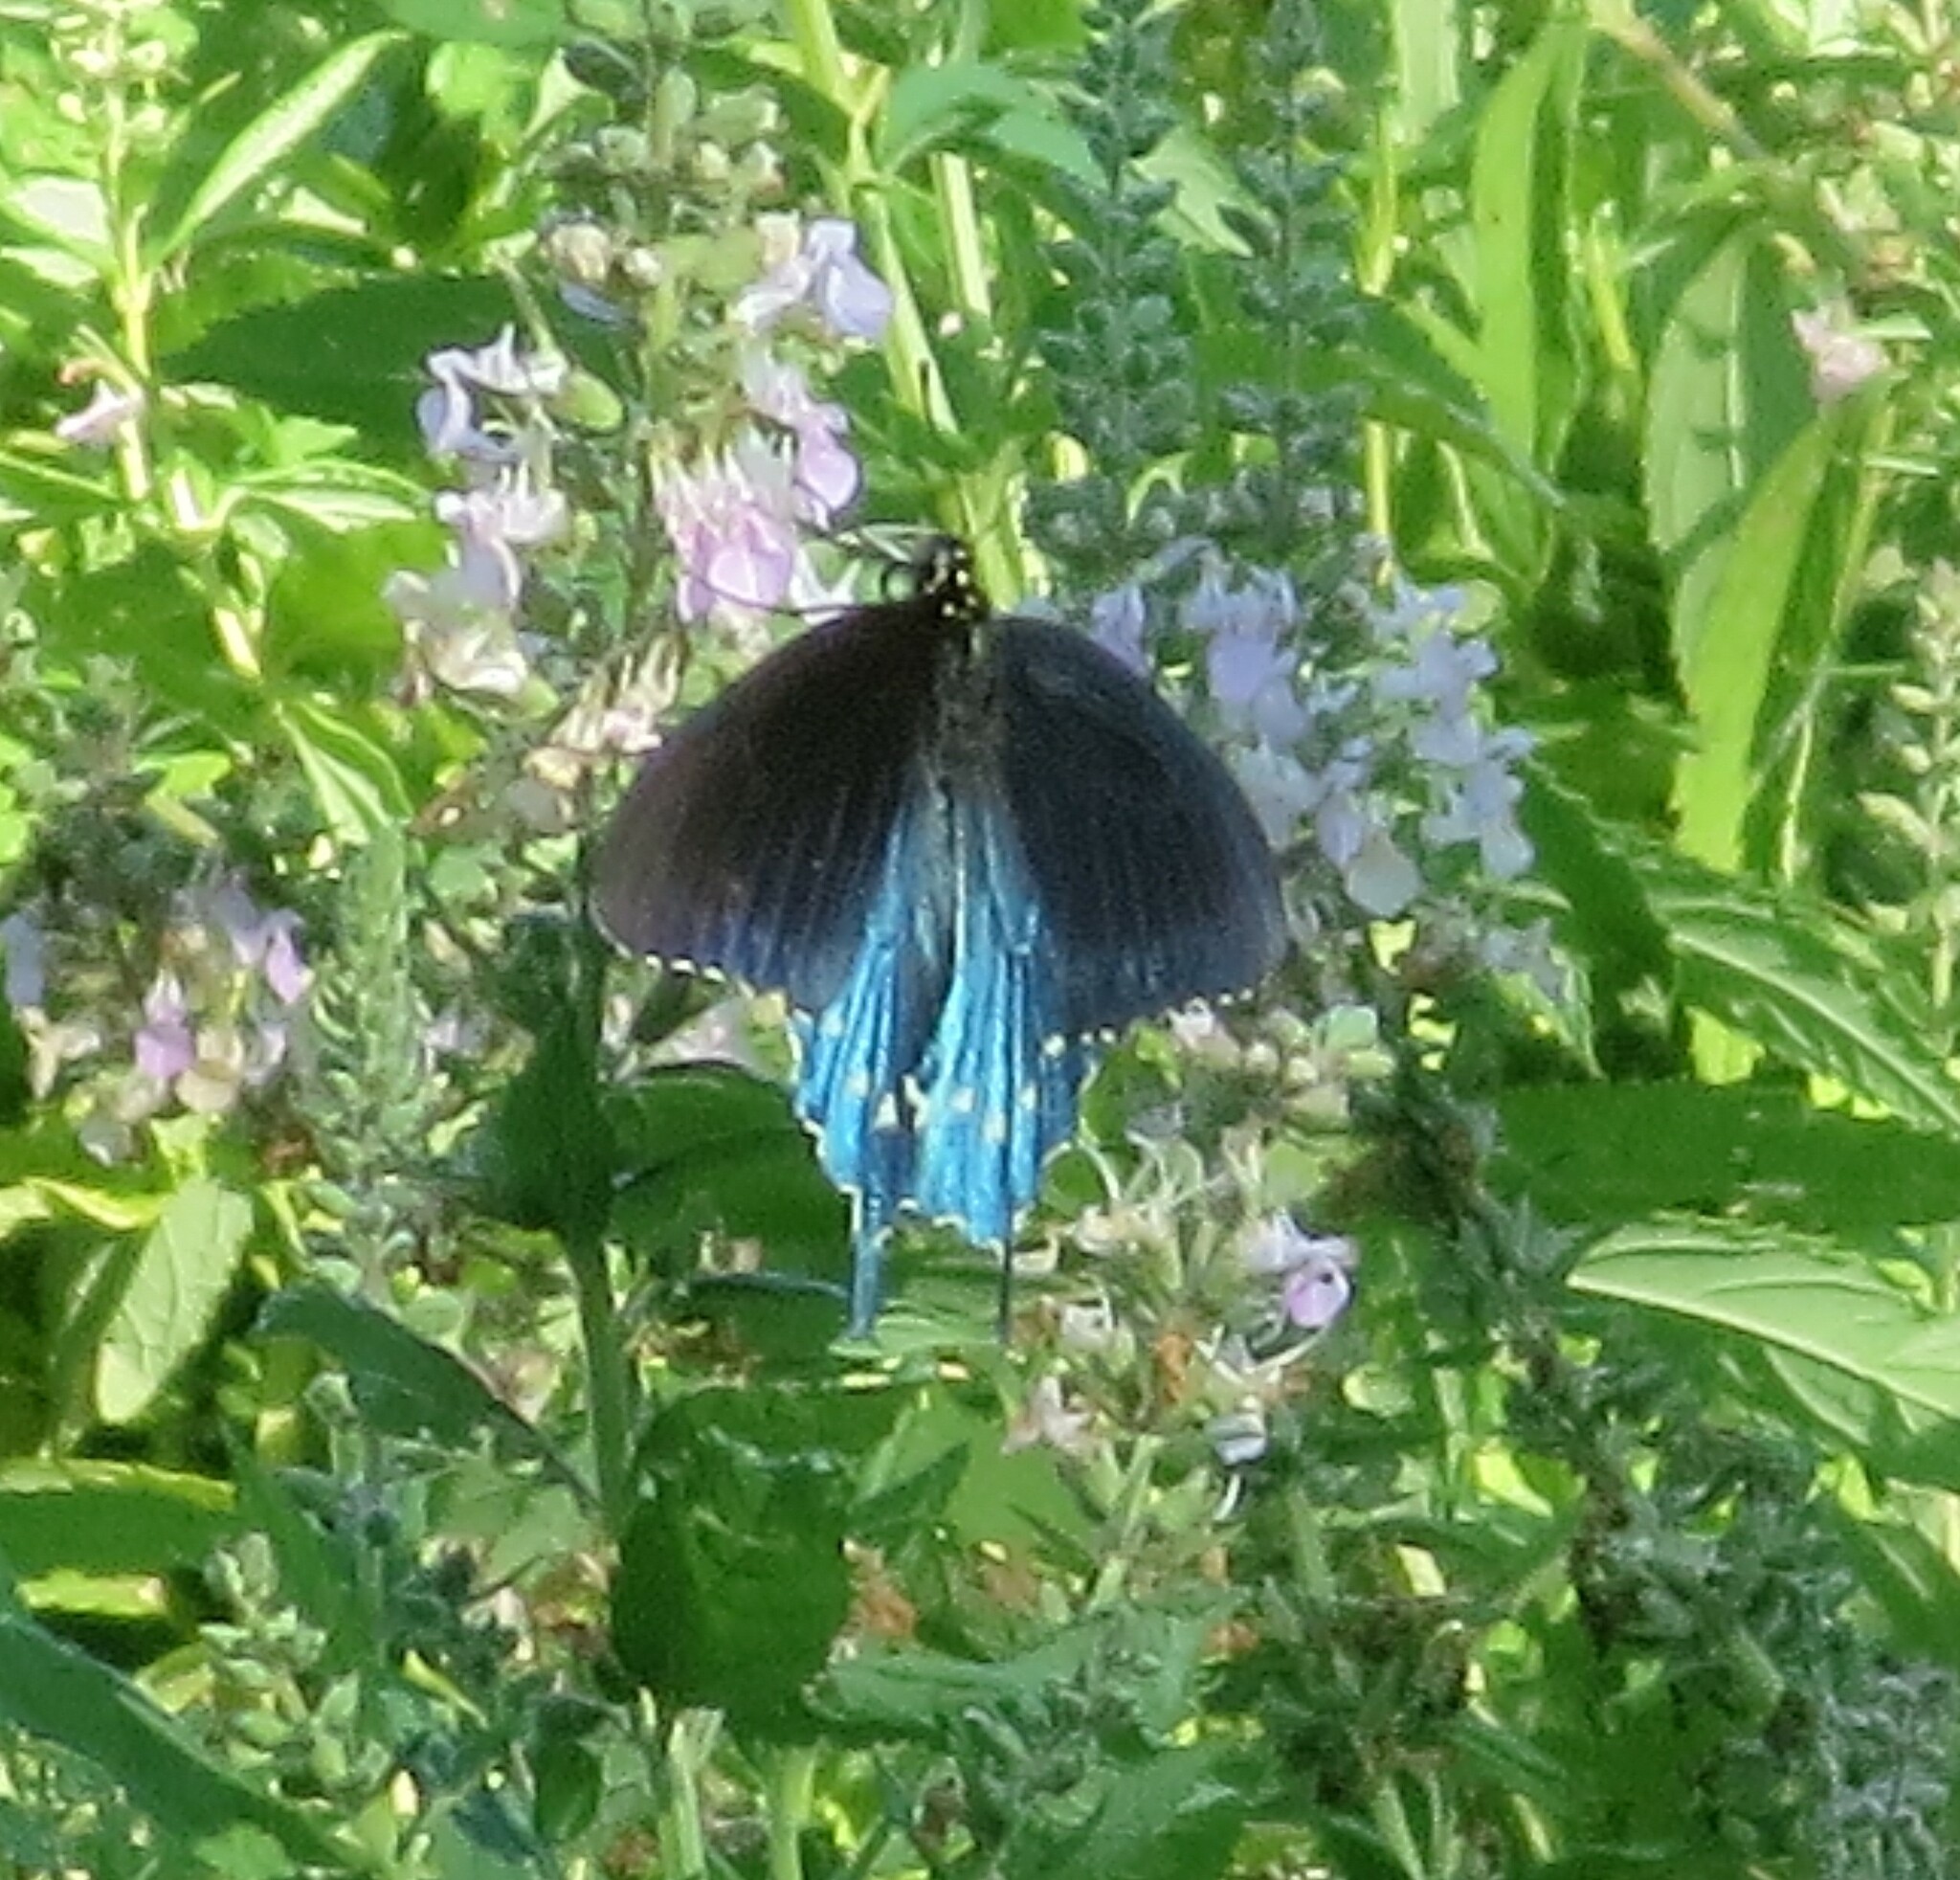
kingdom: Animalia
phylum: Arthropoda
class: Insecta
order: Lepidoptera
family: Papilionidae
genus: Battus
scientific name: Battus philenor
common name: Pipevine swallowtail
